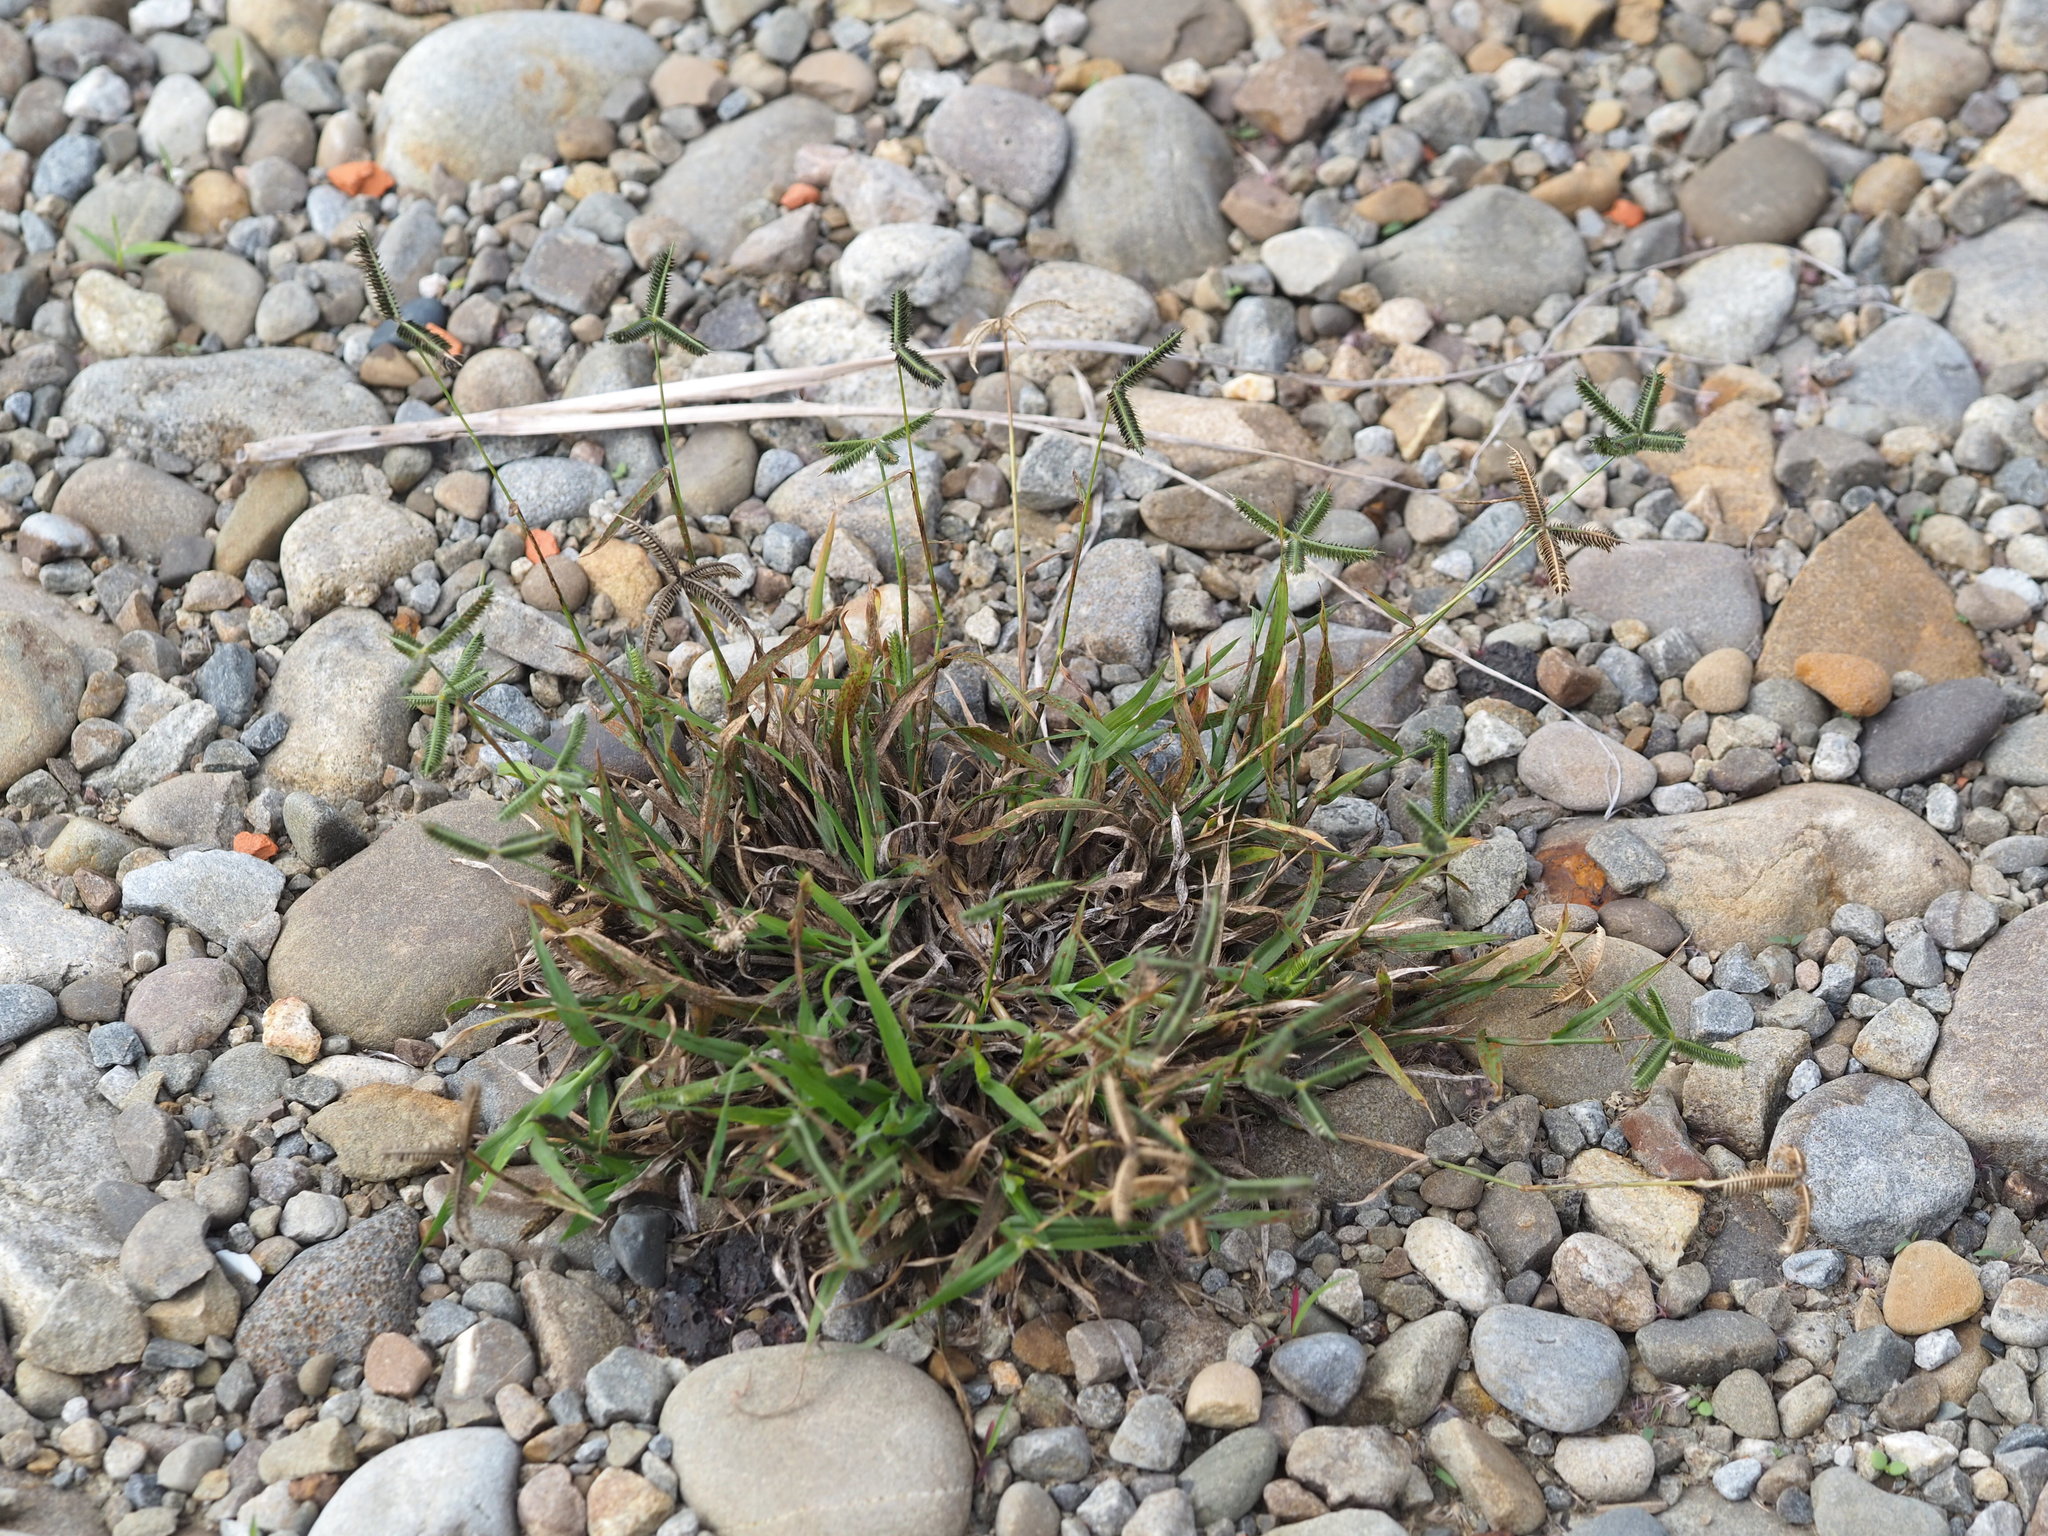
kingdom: Plantae
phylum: Tracheophyta
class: Liliopsida
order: Poales
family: Poaceae
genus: Dactyloctenium
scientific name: Dactyloctenium aegyptium
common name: Egyptian grass
